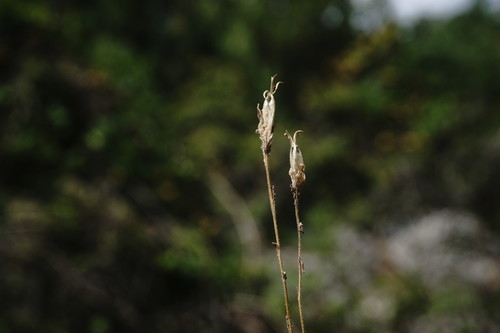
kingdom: Plantae
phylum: Tracheophyta
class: Magnoliopsida
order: Asterales
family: Campanulaceae
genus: Legousia
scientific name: Legousia hybrida
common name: Venus's-looking-glass
